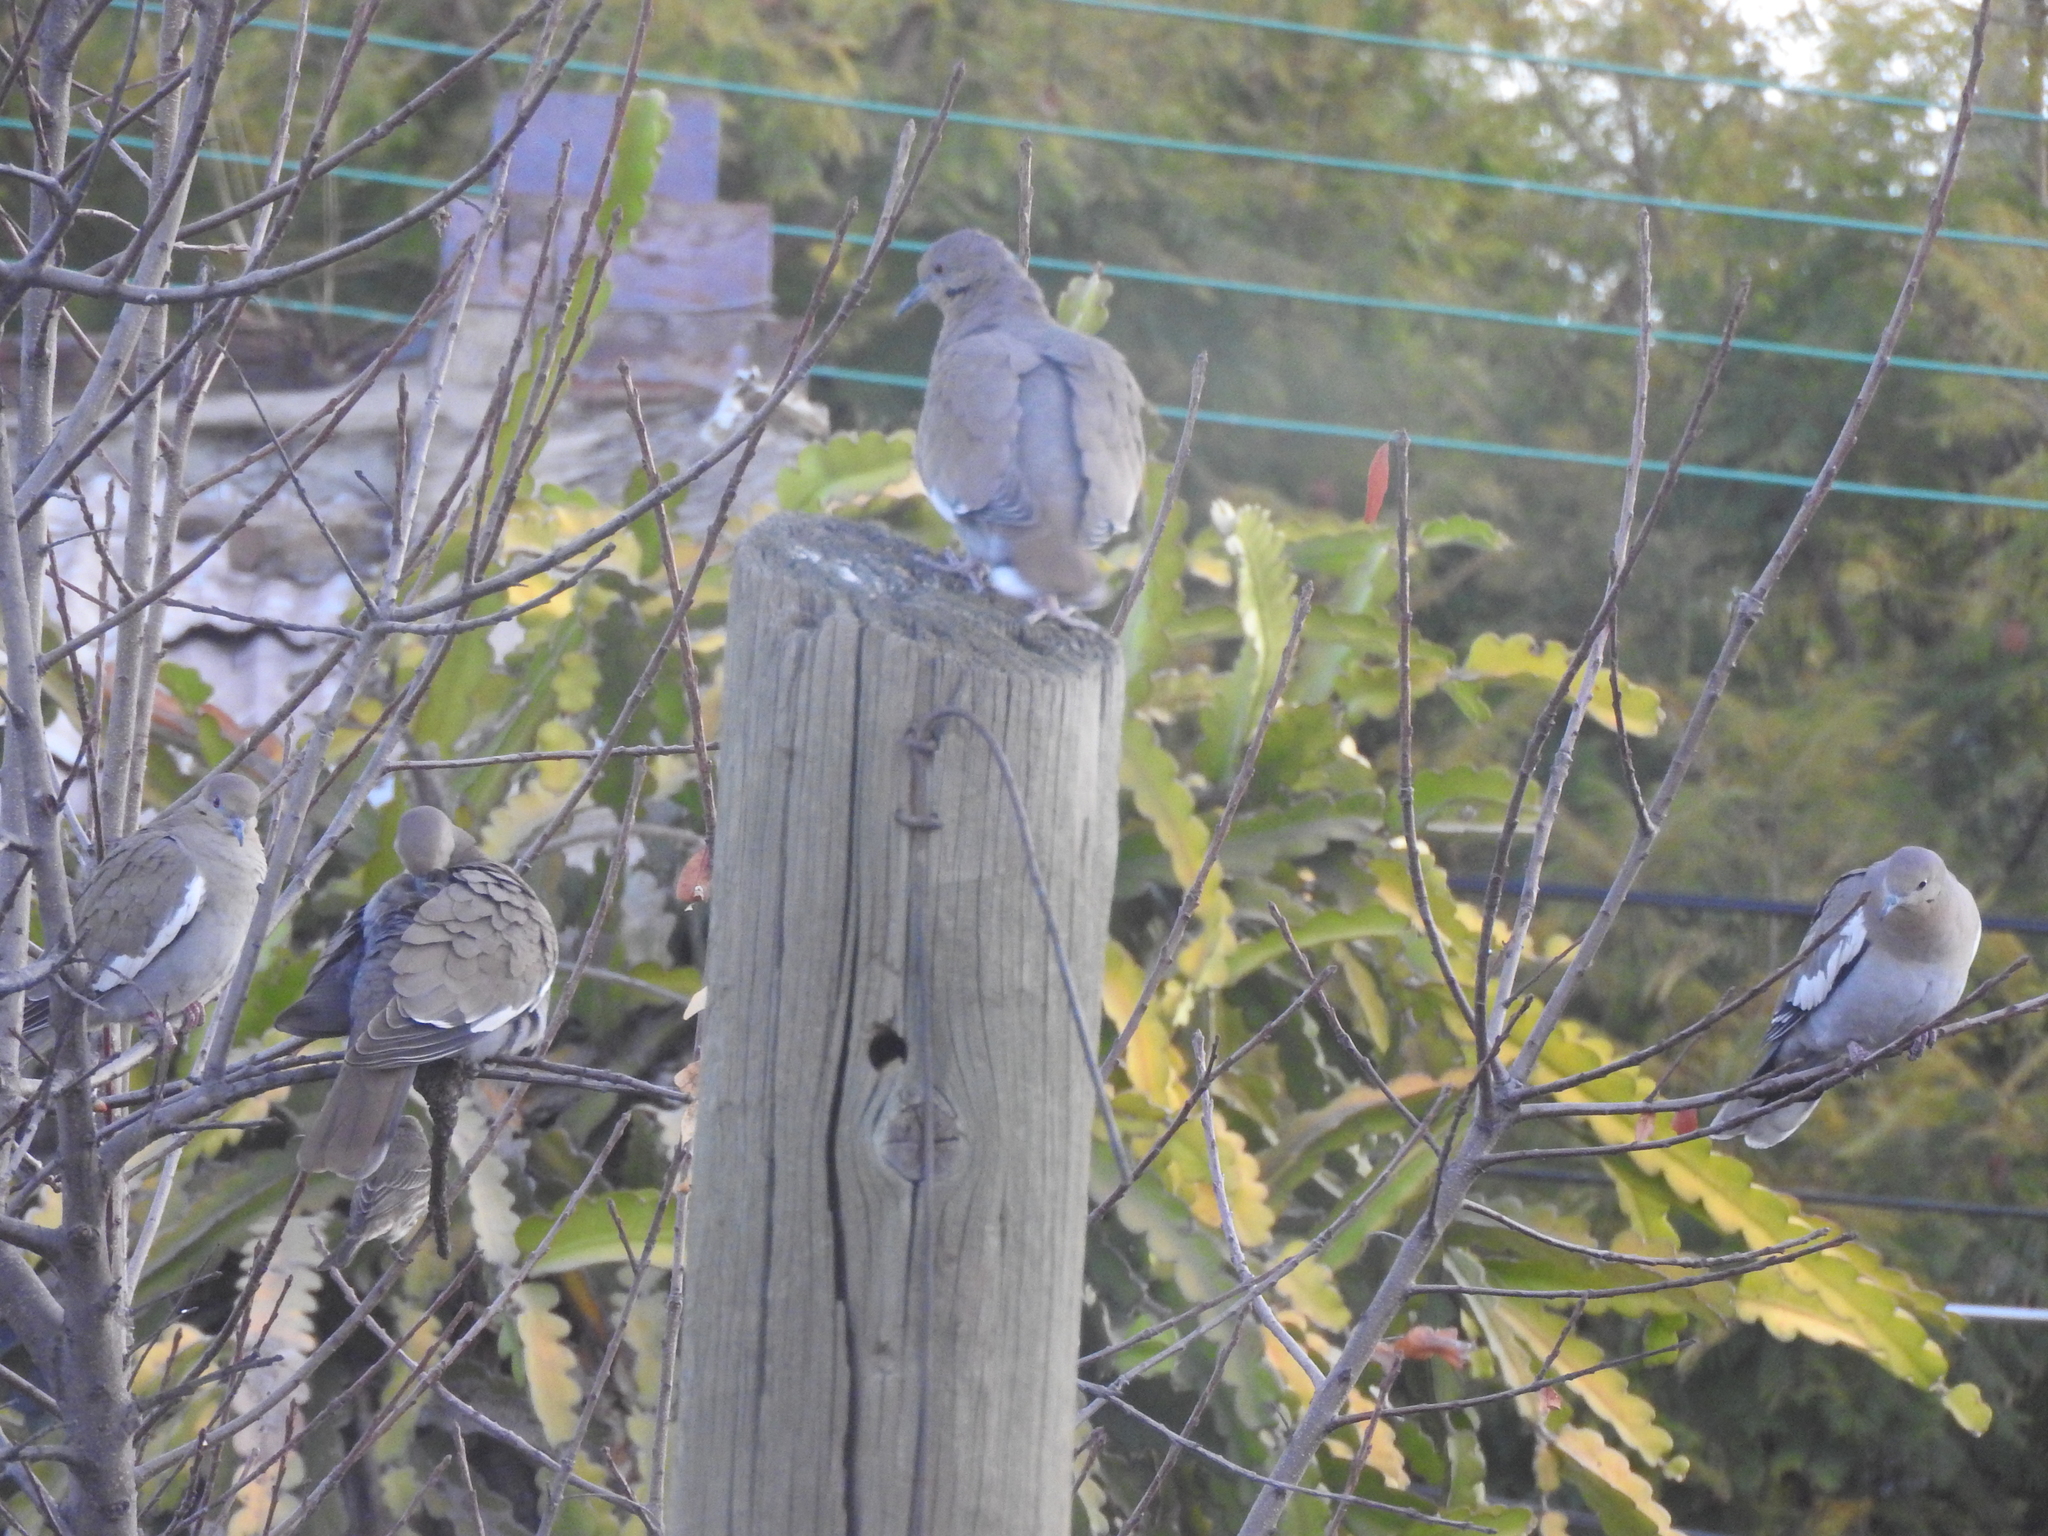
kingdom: Animalia
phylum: Chordata
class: Aves
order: Columbiformes
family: Columbidae
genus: Zenaida
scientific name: Zenaida asiatica
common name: White-winged dove
